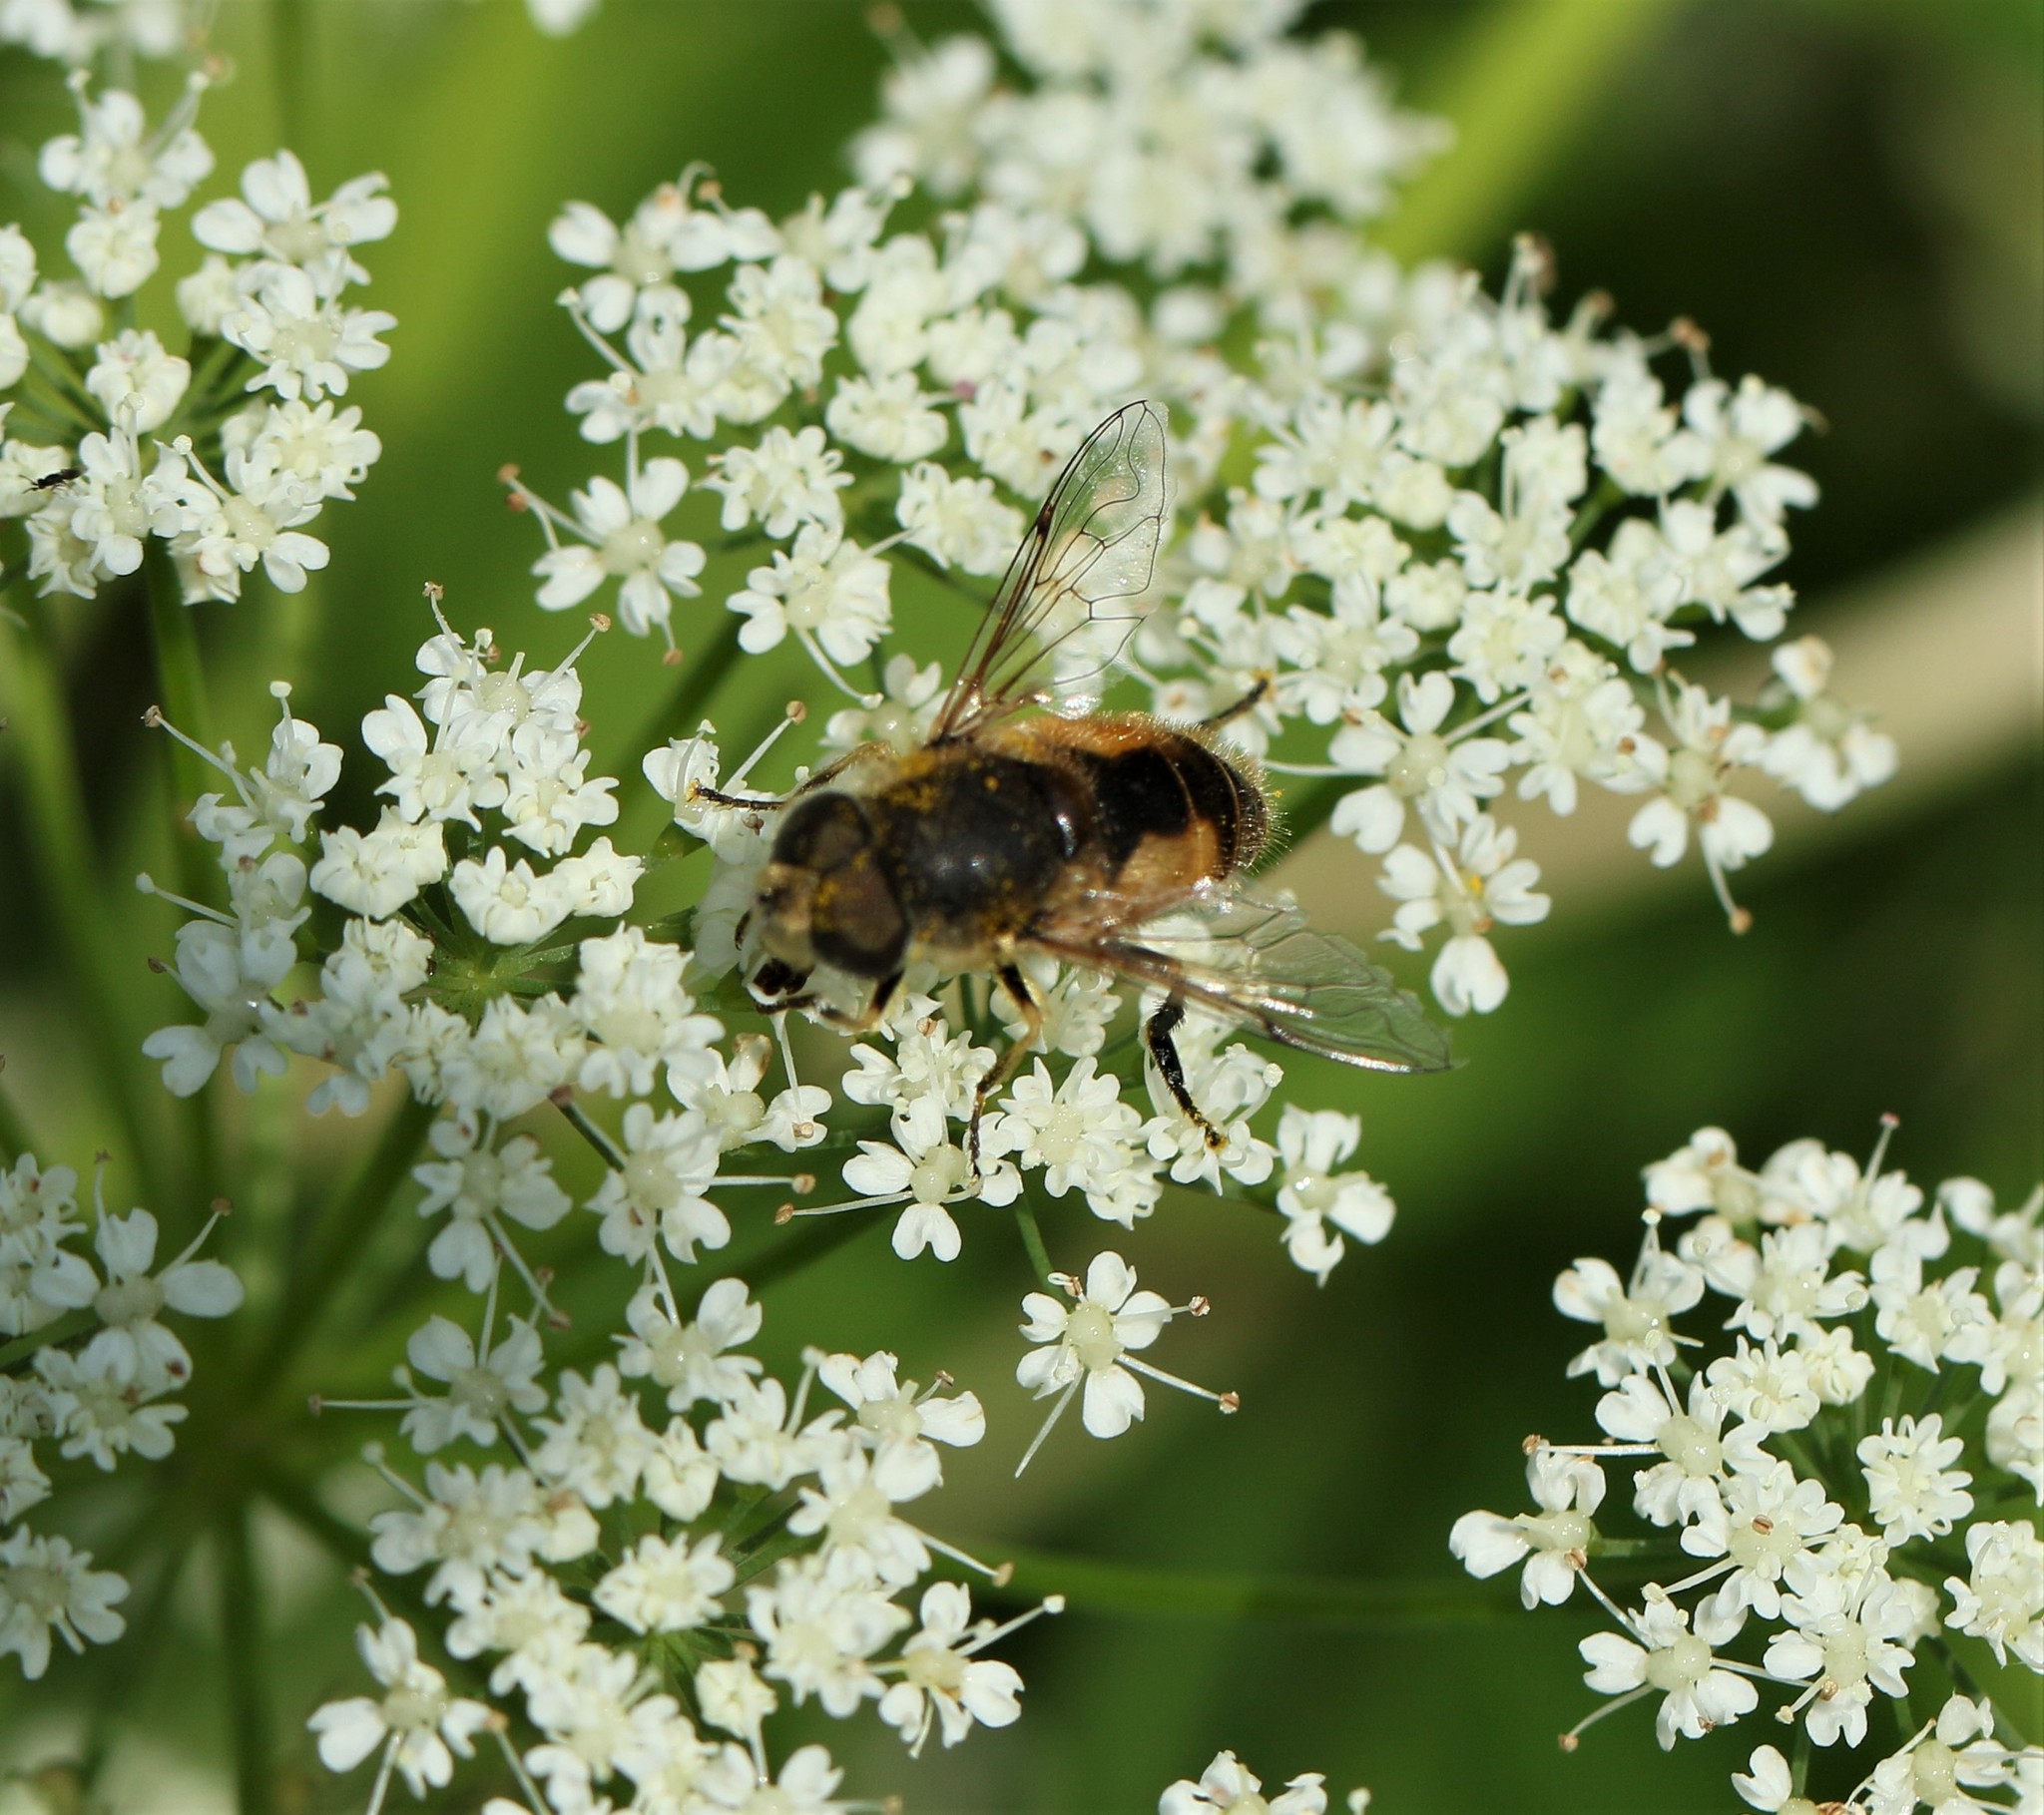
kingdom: Animalia
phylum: Arthropoda
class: Insecta
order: Diptera
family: Syrphidae
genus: Eristalis
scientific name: Eristalis arbustorum
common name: Hover fly
